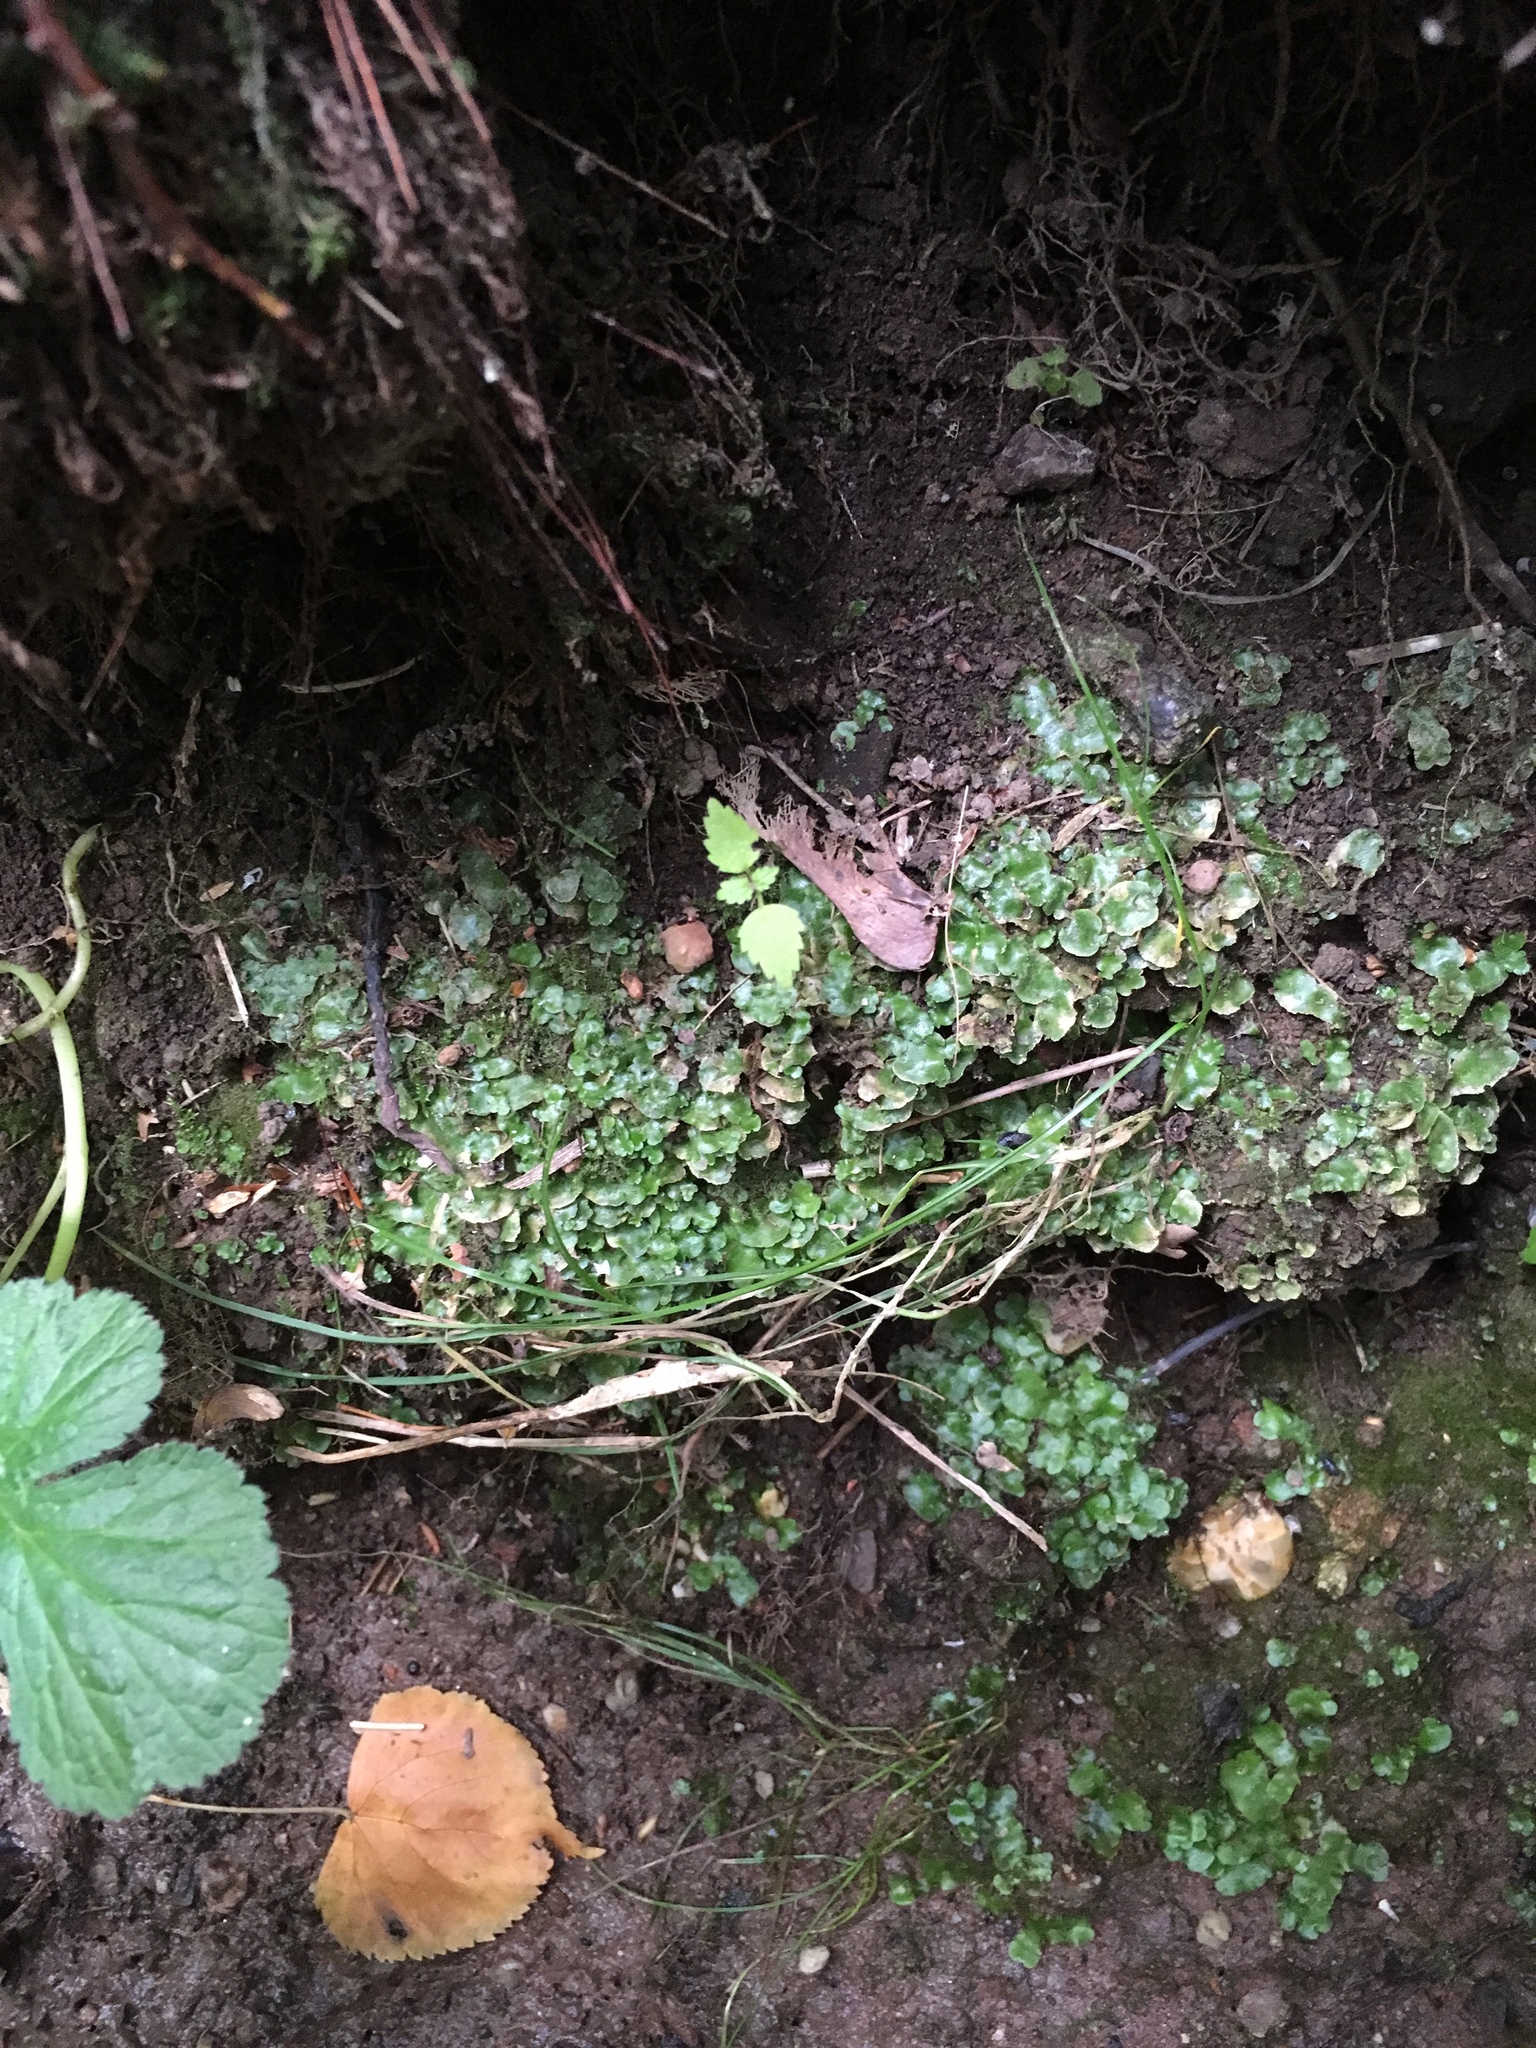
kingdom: Plantae
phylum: Marchantiophyta
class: Marchantiopsida
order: Lunulariales
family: Lunulariaceae
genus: Lunularia
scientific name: Lunularia cruciata
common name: Crescent-cup liverwort
